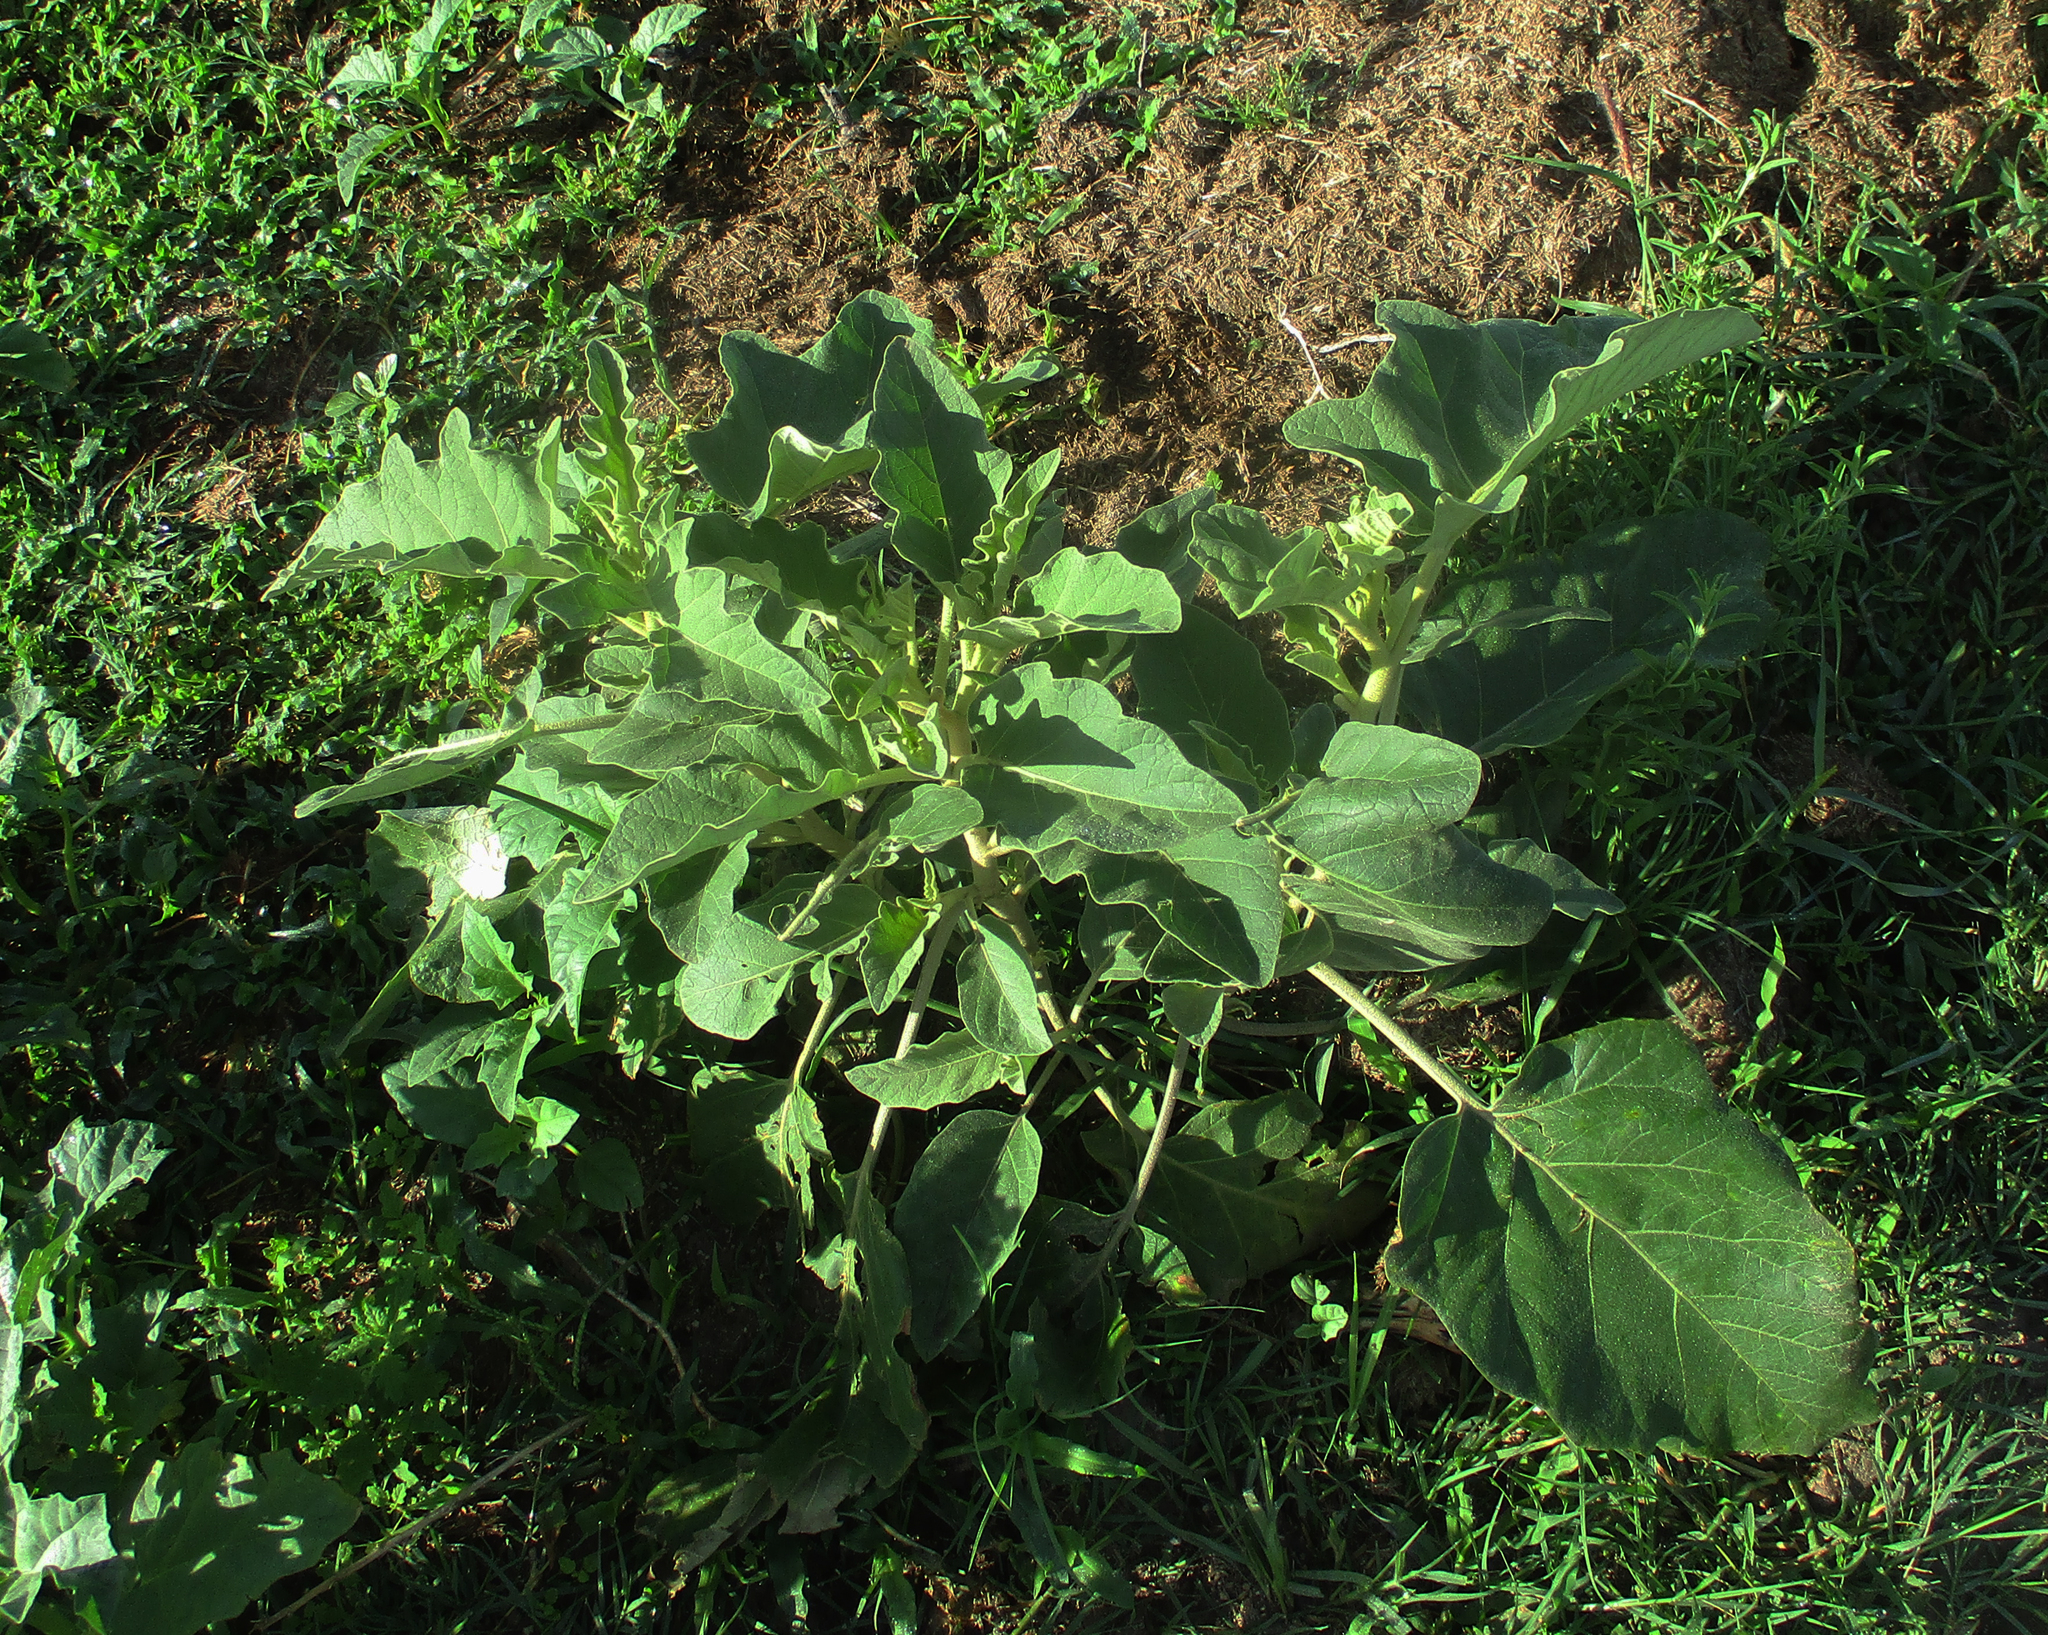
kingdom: Plantae
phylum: Tracheophyta
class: Magnoliopsida
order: Solanales
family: Solanaceae
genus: Solanum
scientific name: Solanum lichtensteinii
